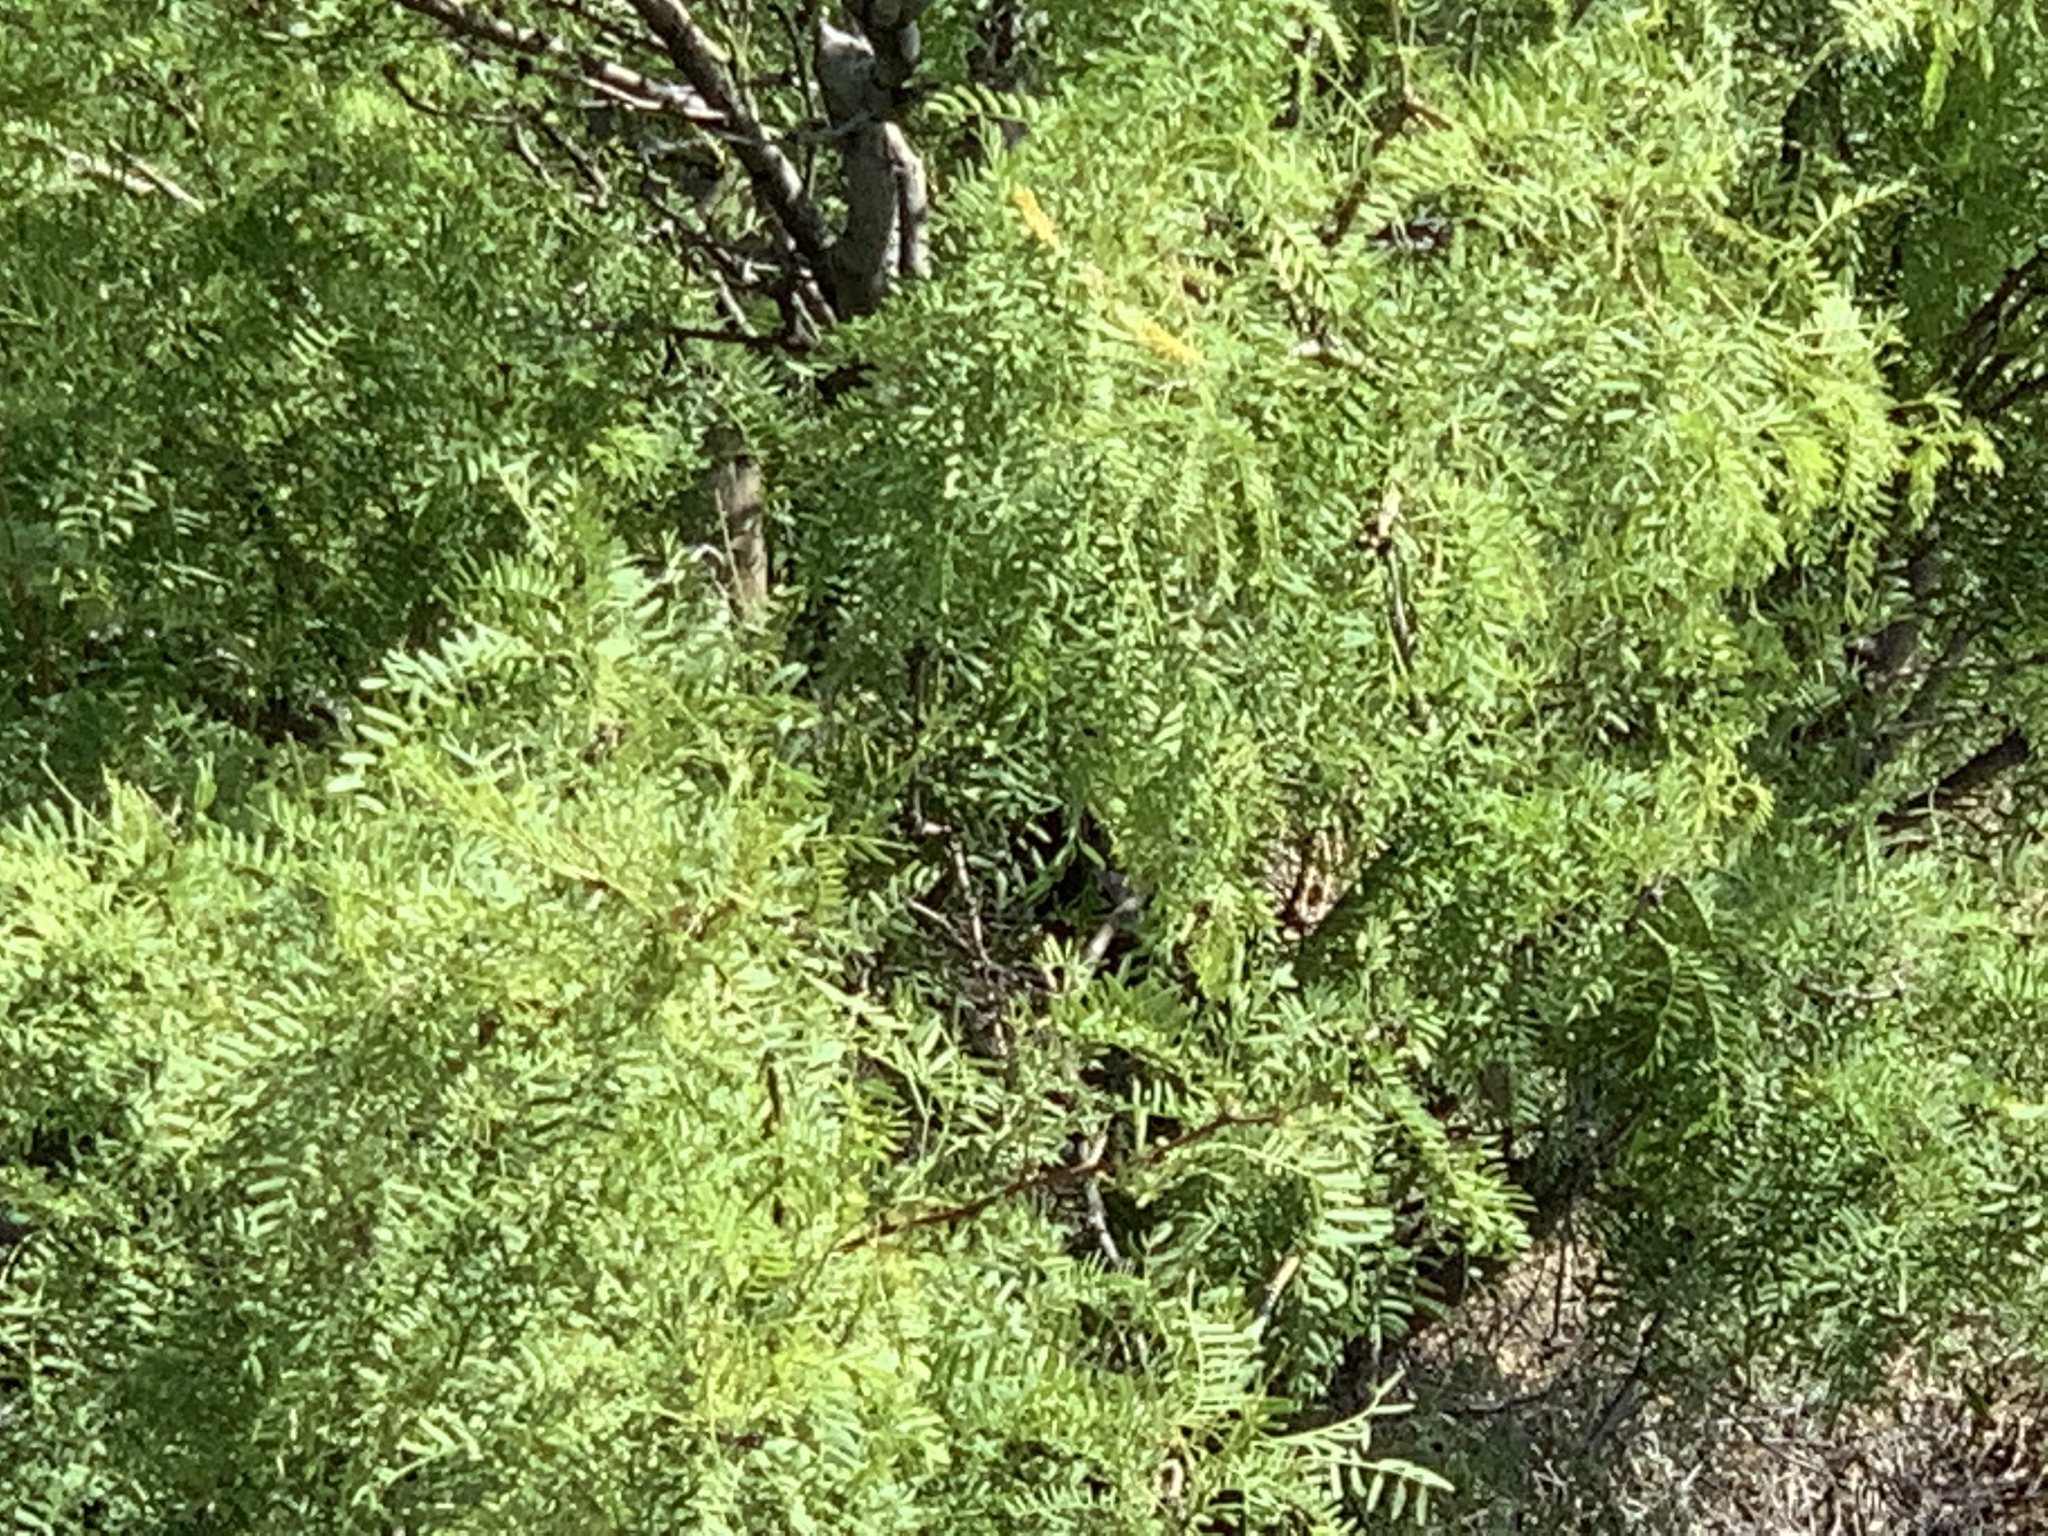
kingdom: Plantae
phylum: Tracheophyta
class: Magnoliopsida
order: Fabales
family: Fabaceae
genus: Prosopis
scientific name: Prosopis glandulosa
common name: Honey mesquite
